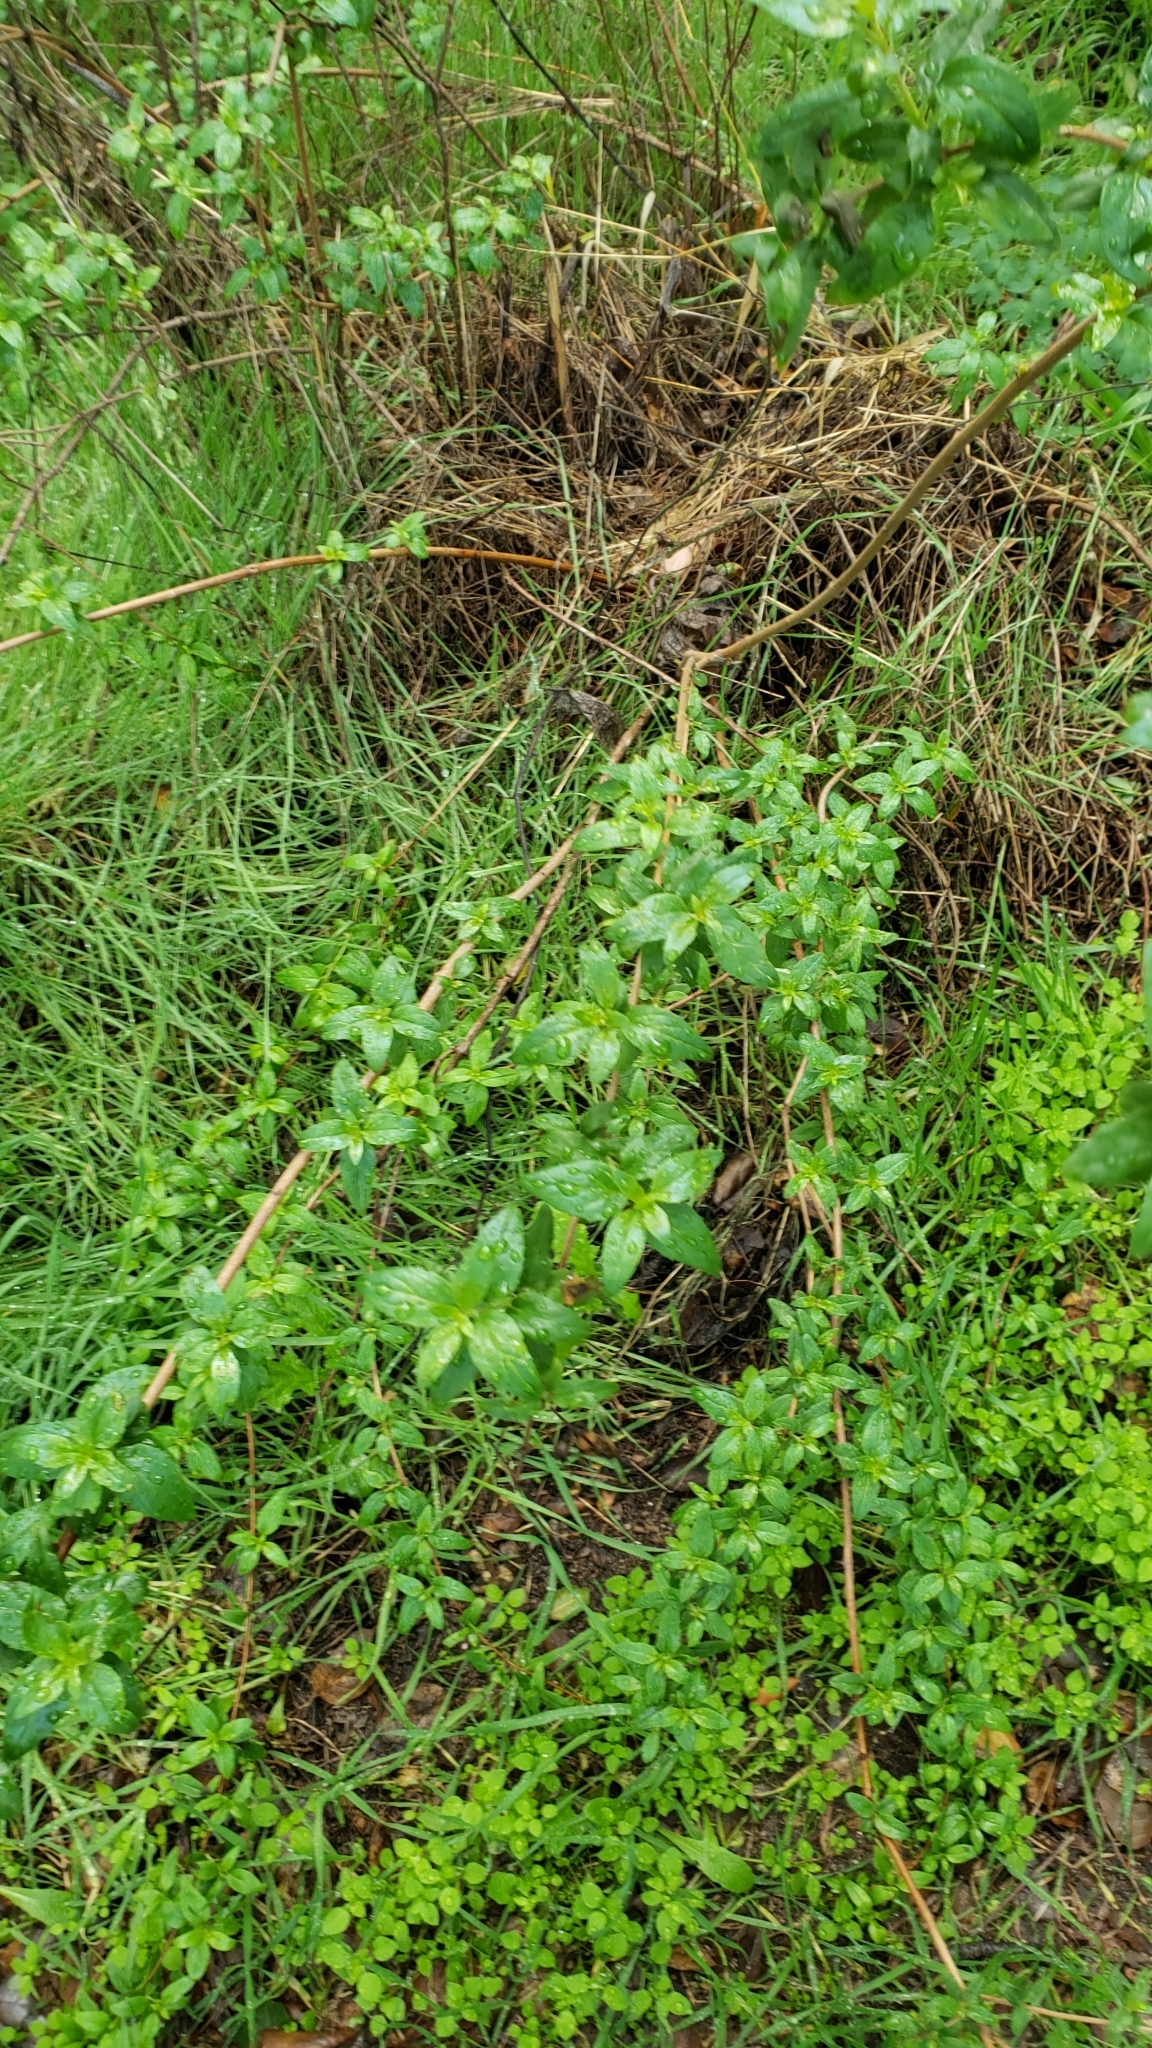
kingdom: Plantae
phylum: Tracheophyta
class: Magnoliopsida
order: Lamiales
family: Plantaginaceae
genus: Keckiella
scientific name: Keckiella cordifolia
